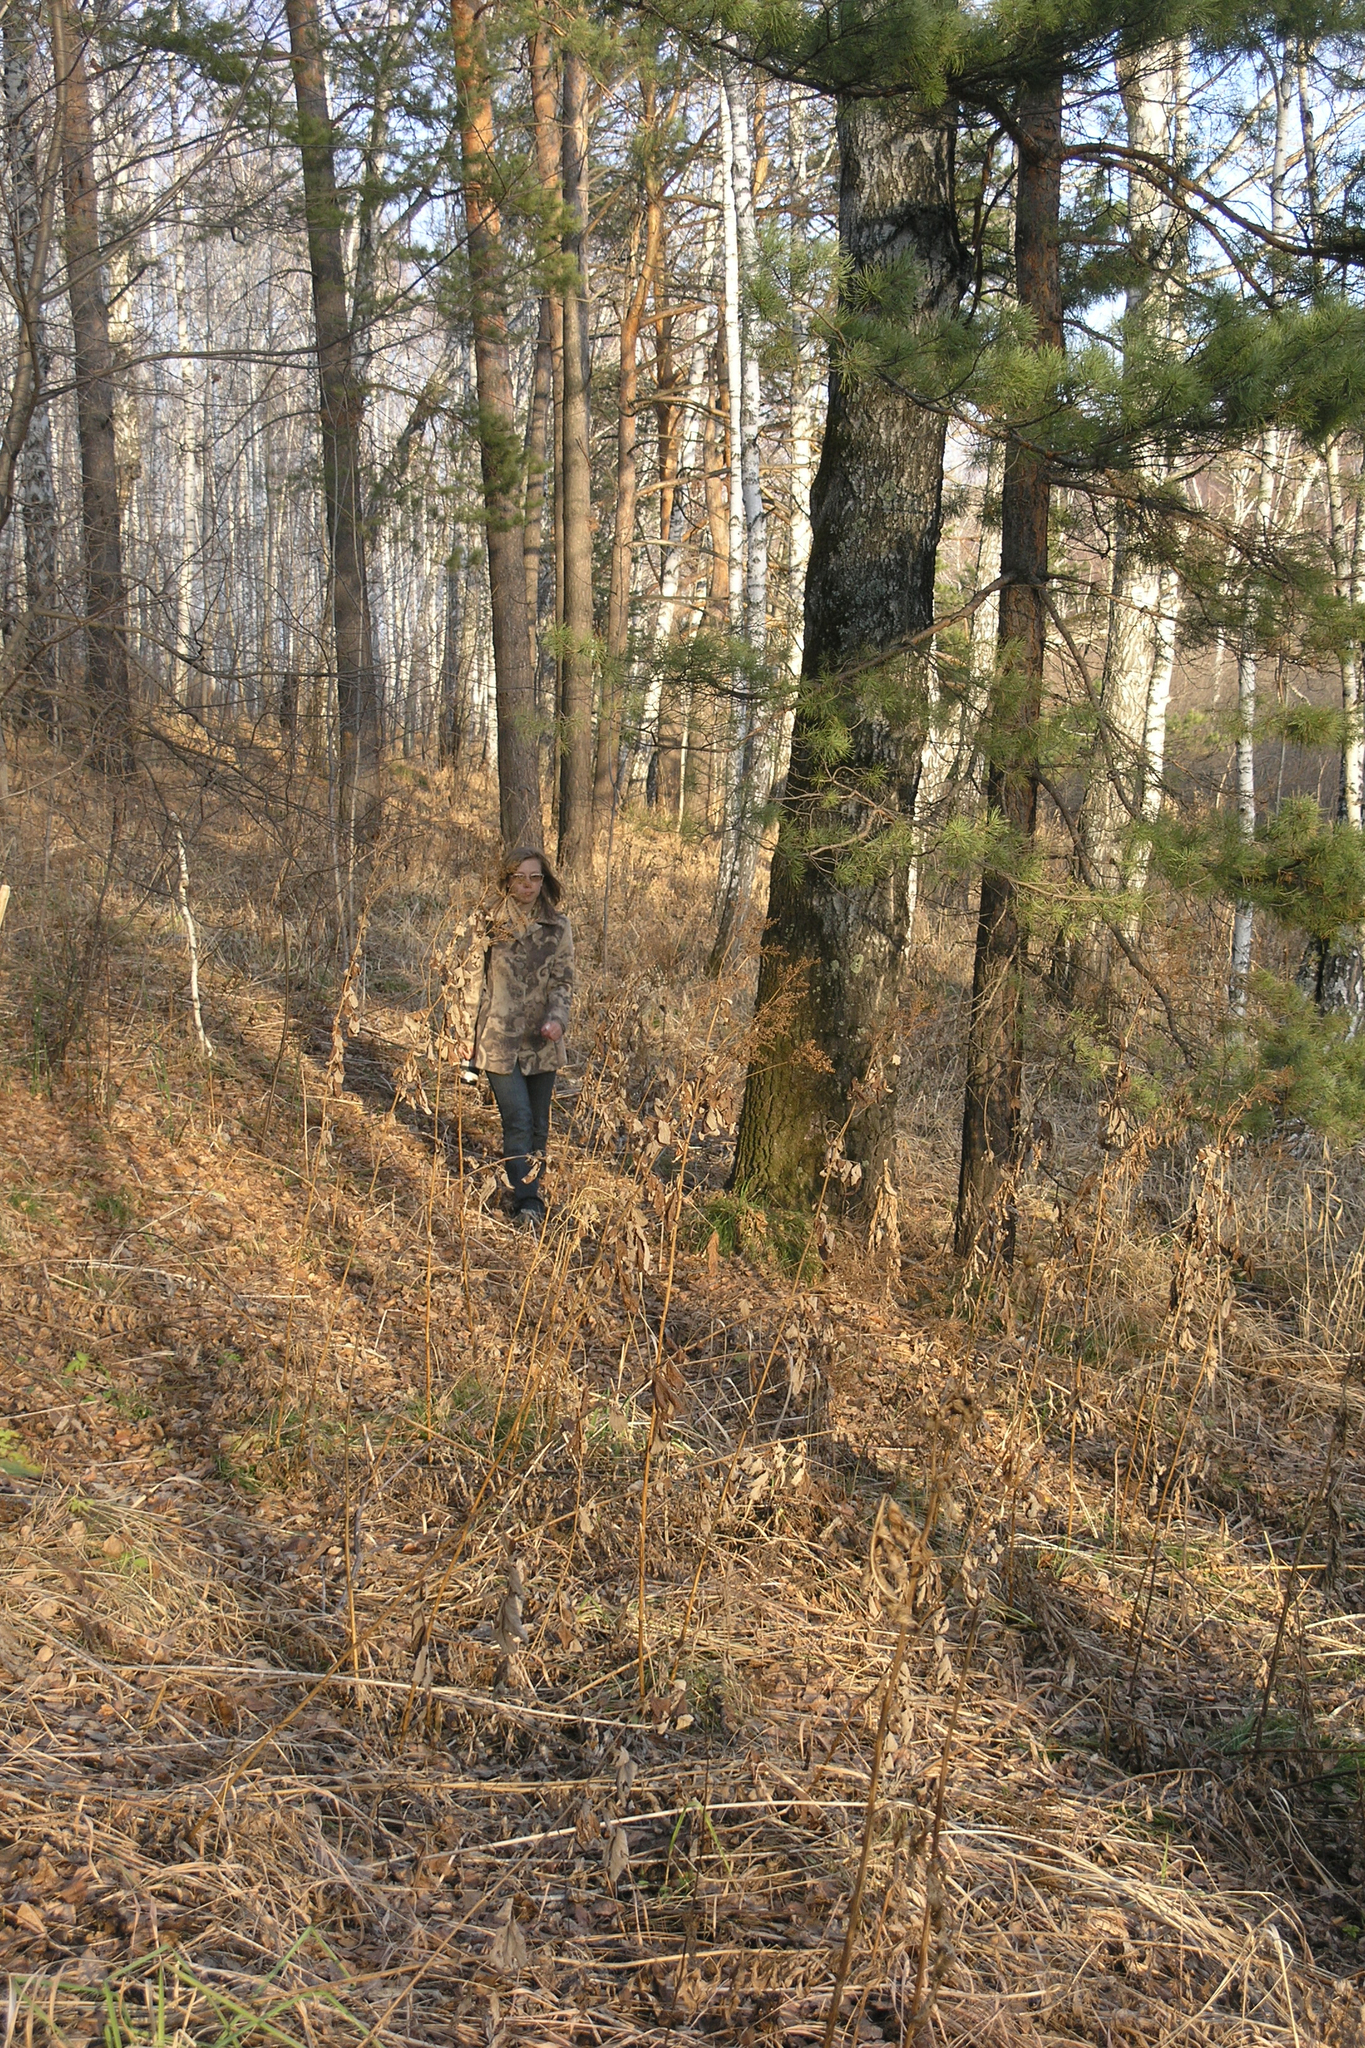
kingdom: Plantae
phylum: Tracheophyta
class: Pinopsida
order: Pinales
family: Pinaceae
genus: Pinus
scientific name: Pinus sylvestris
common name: Scots pine
